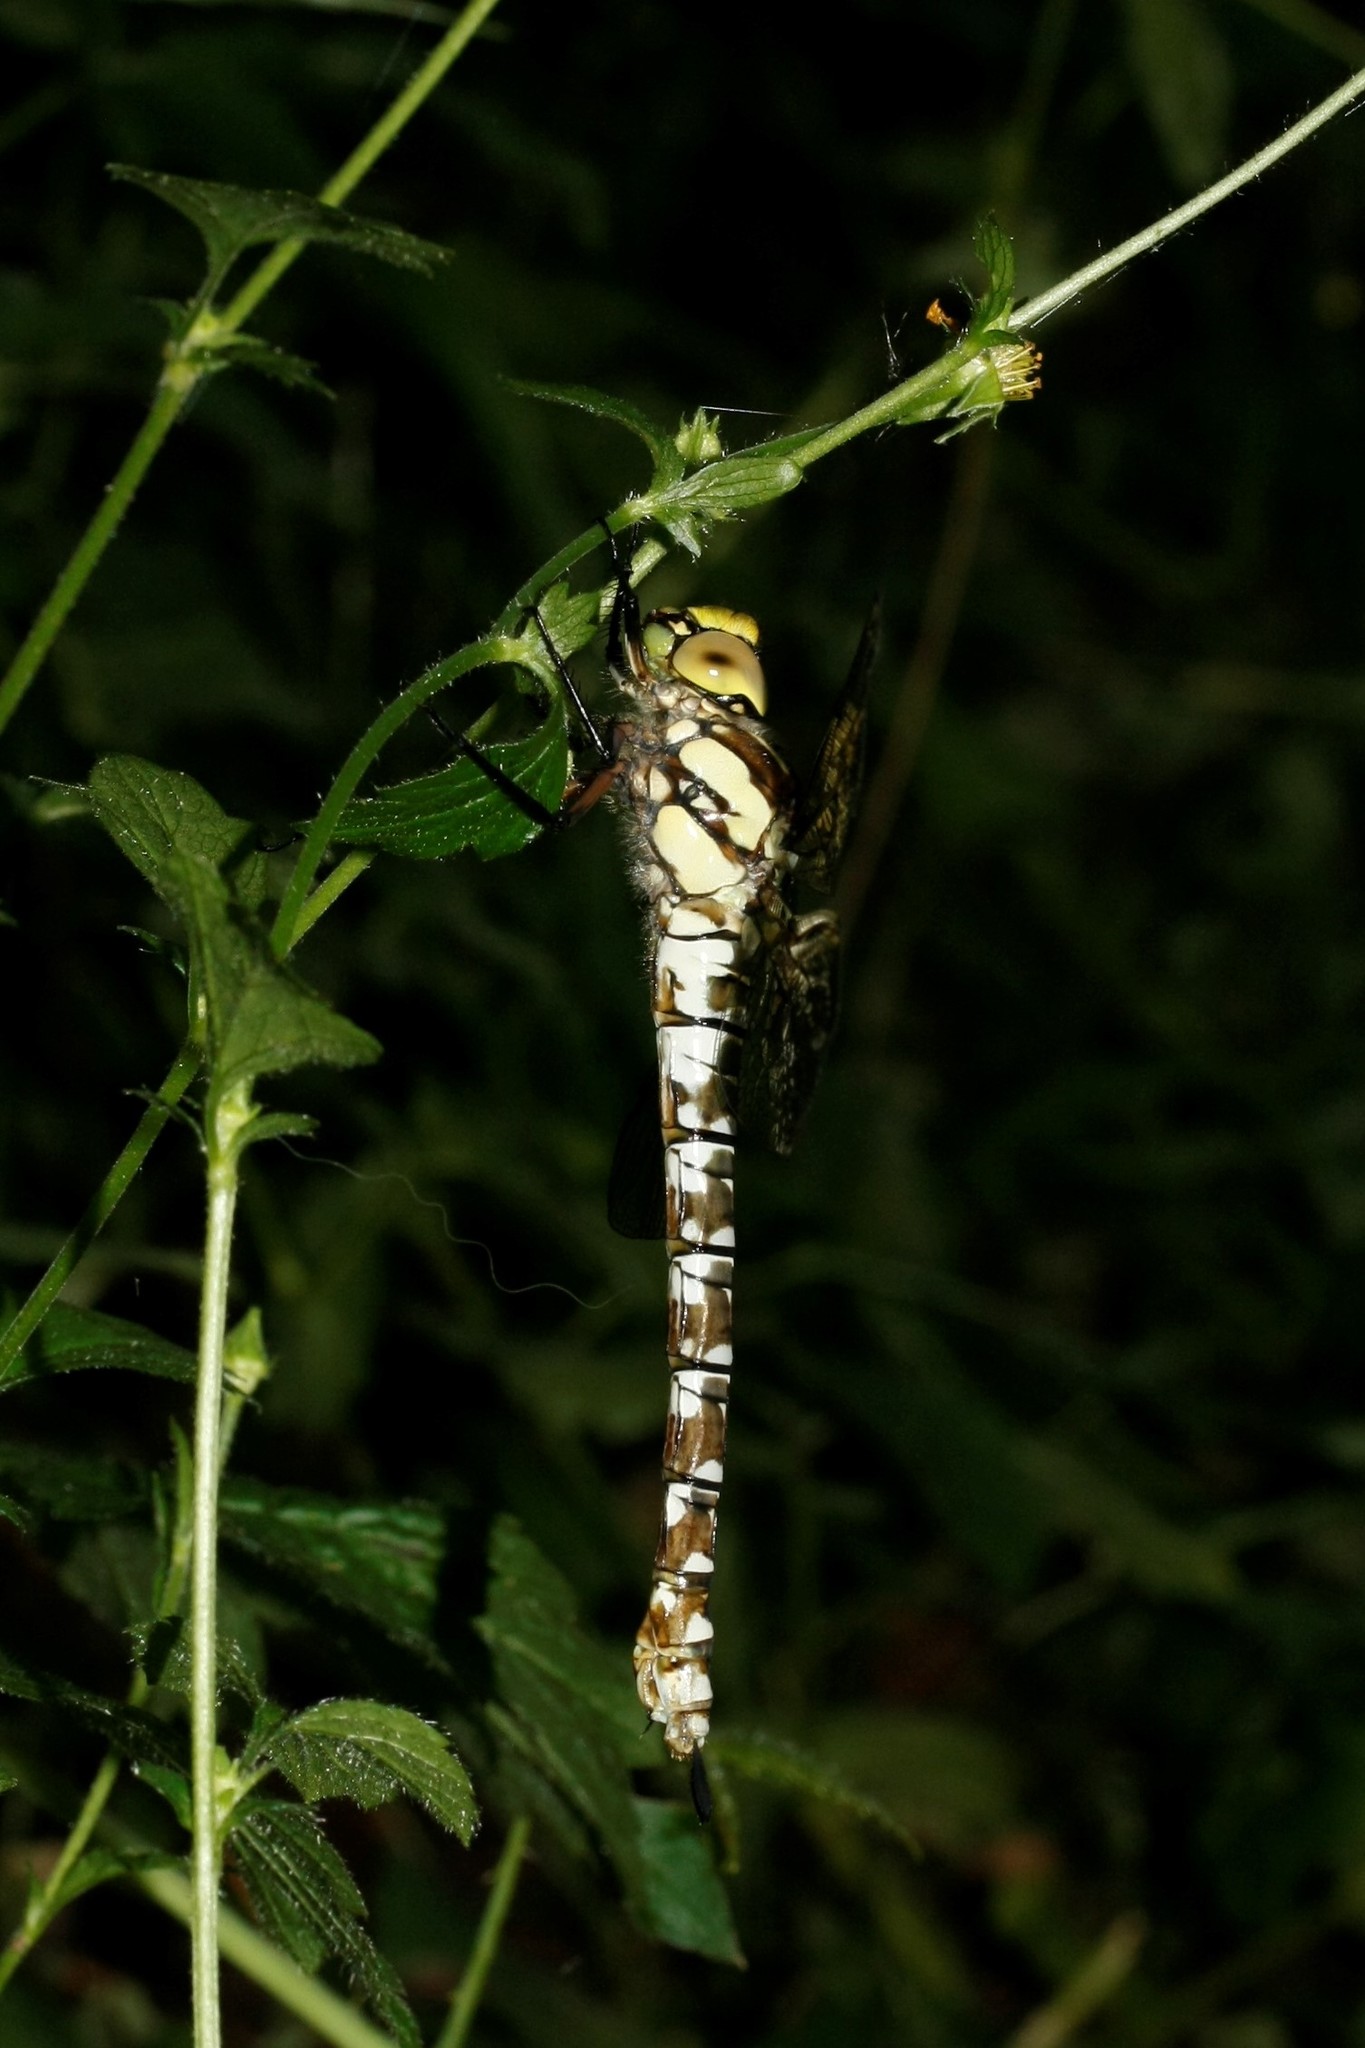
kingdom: Animalia
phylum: Arthropoda
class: Insecta
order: Odonata
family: Aeshnidae
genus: Aeshna
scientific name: Aeshna cyanea
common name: Southern hawker
